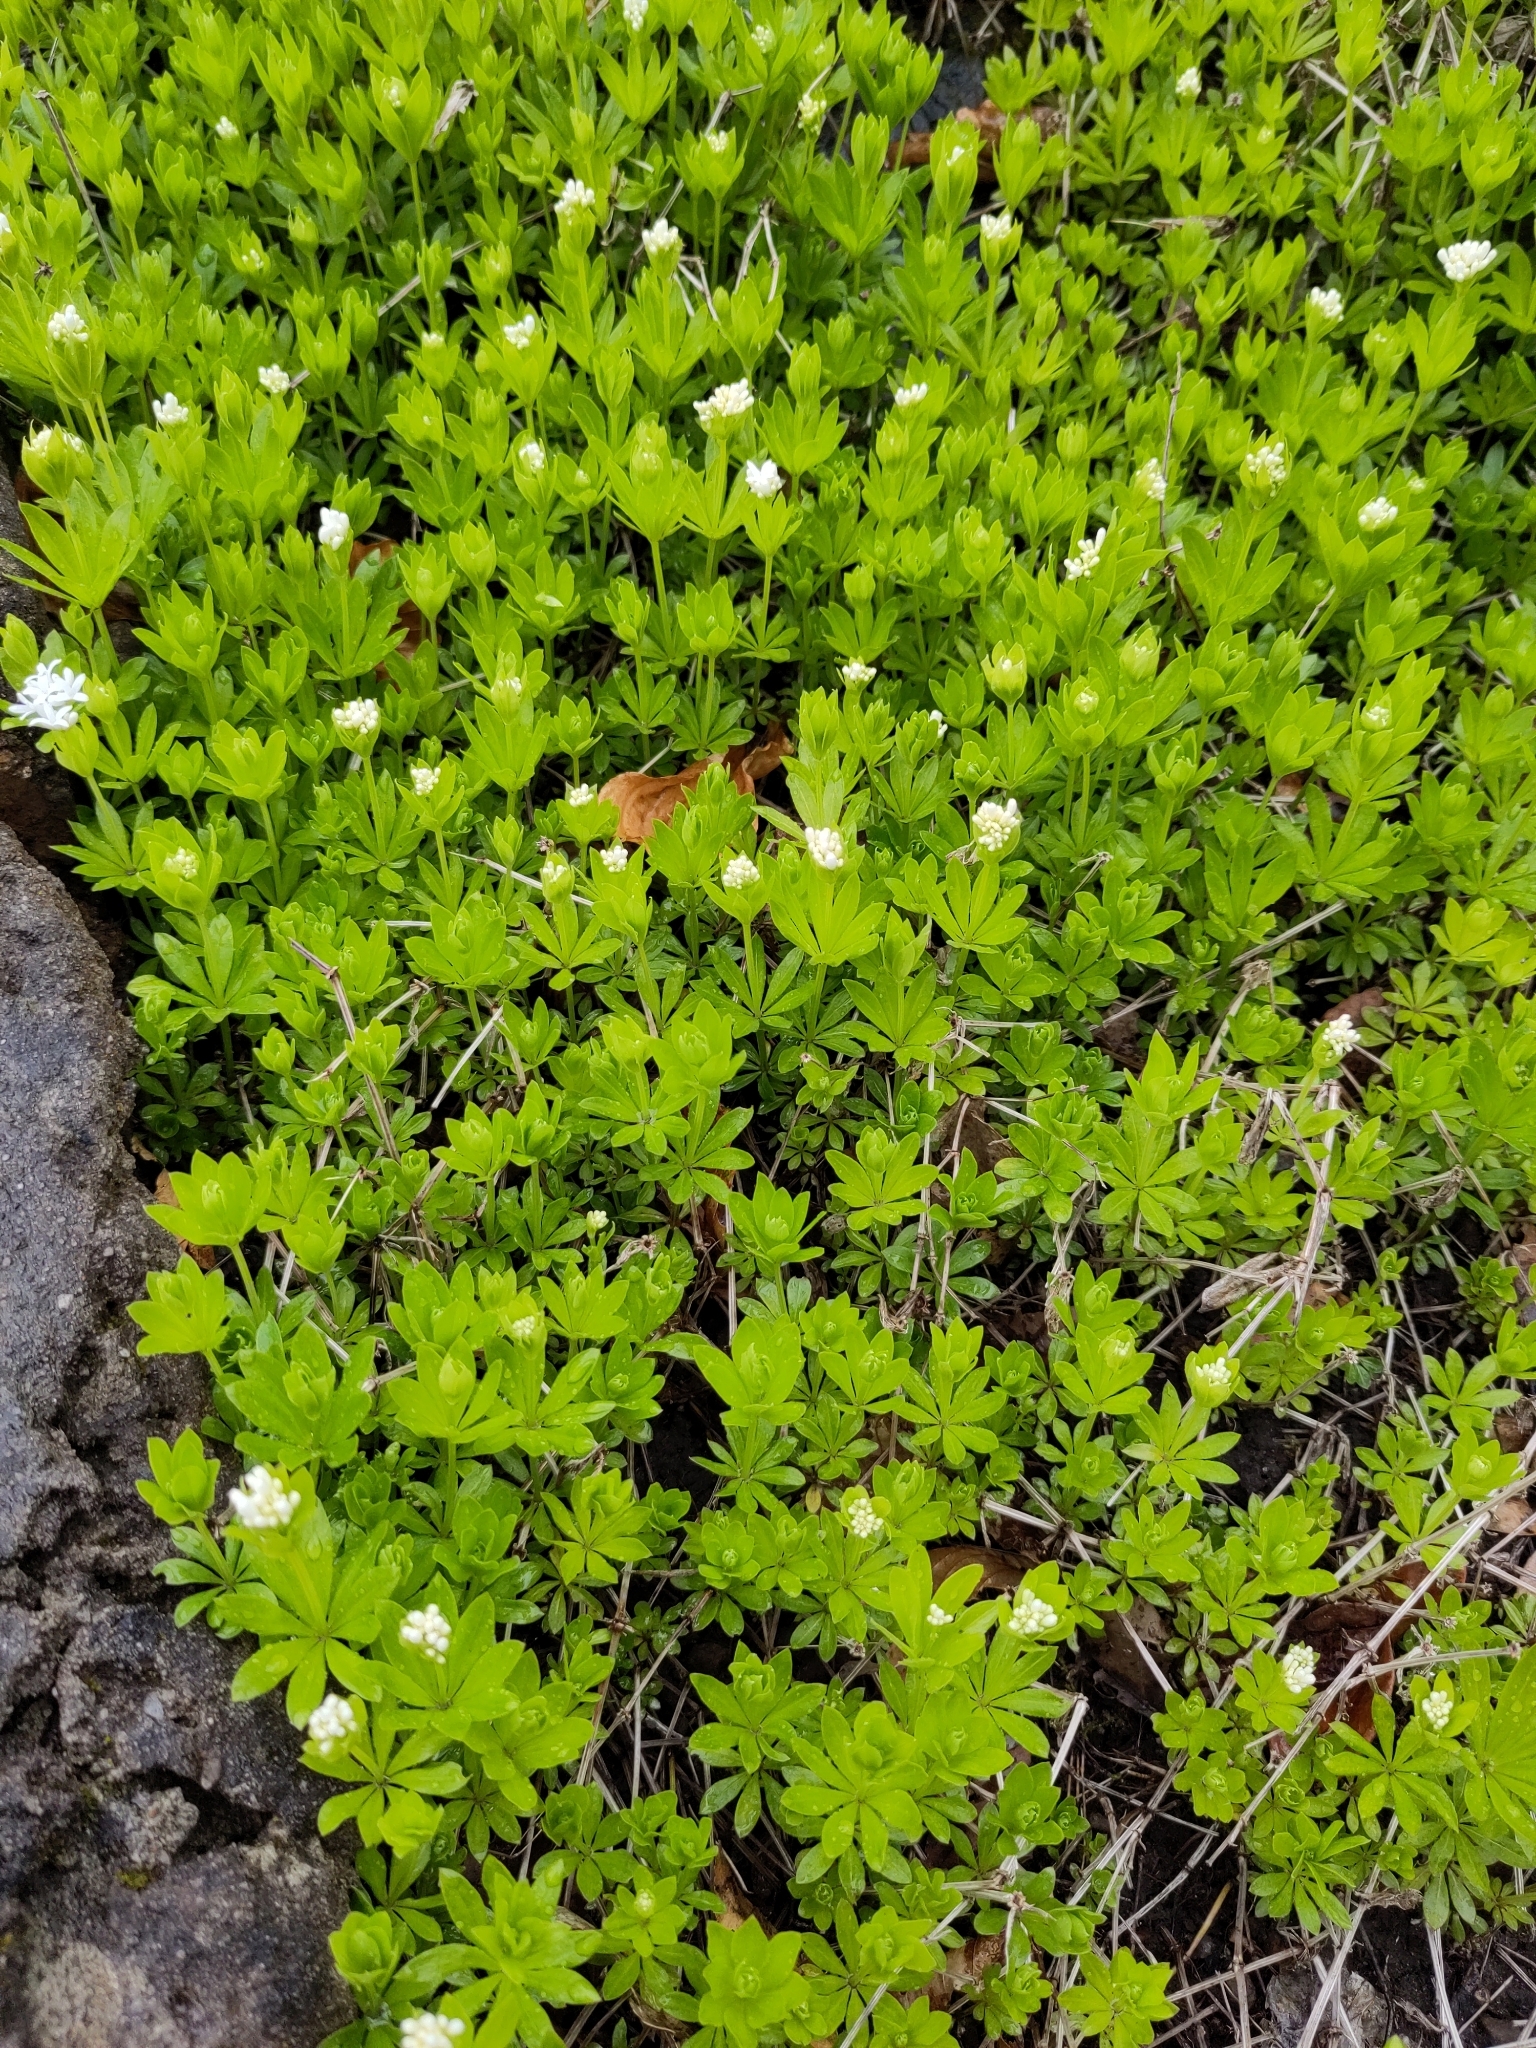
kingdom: Plantae
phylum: Tracheophyta
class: Magnoliopsida
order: Gentianales
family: Rubiaceae
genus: Galium
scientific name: Galium odoratum
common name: Sweet woodruff
